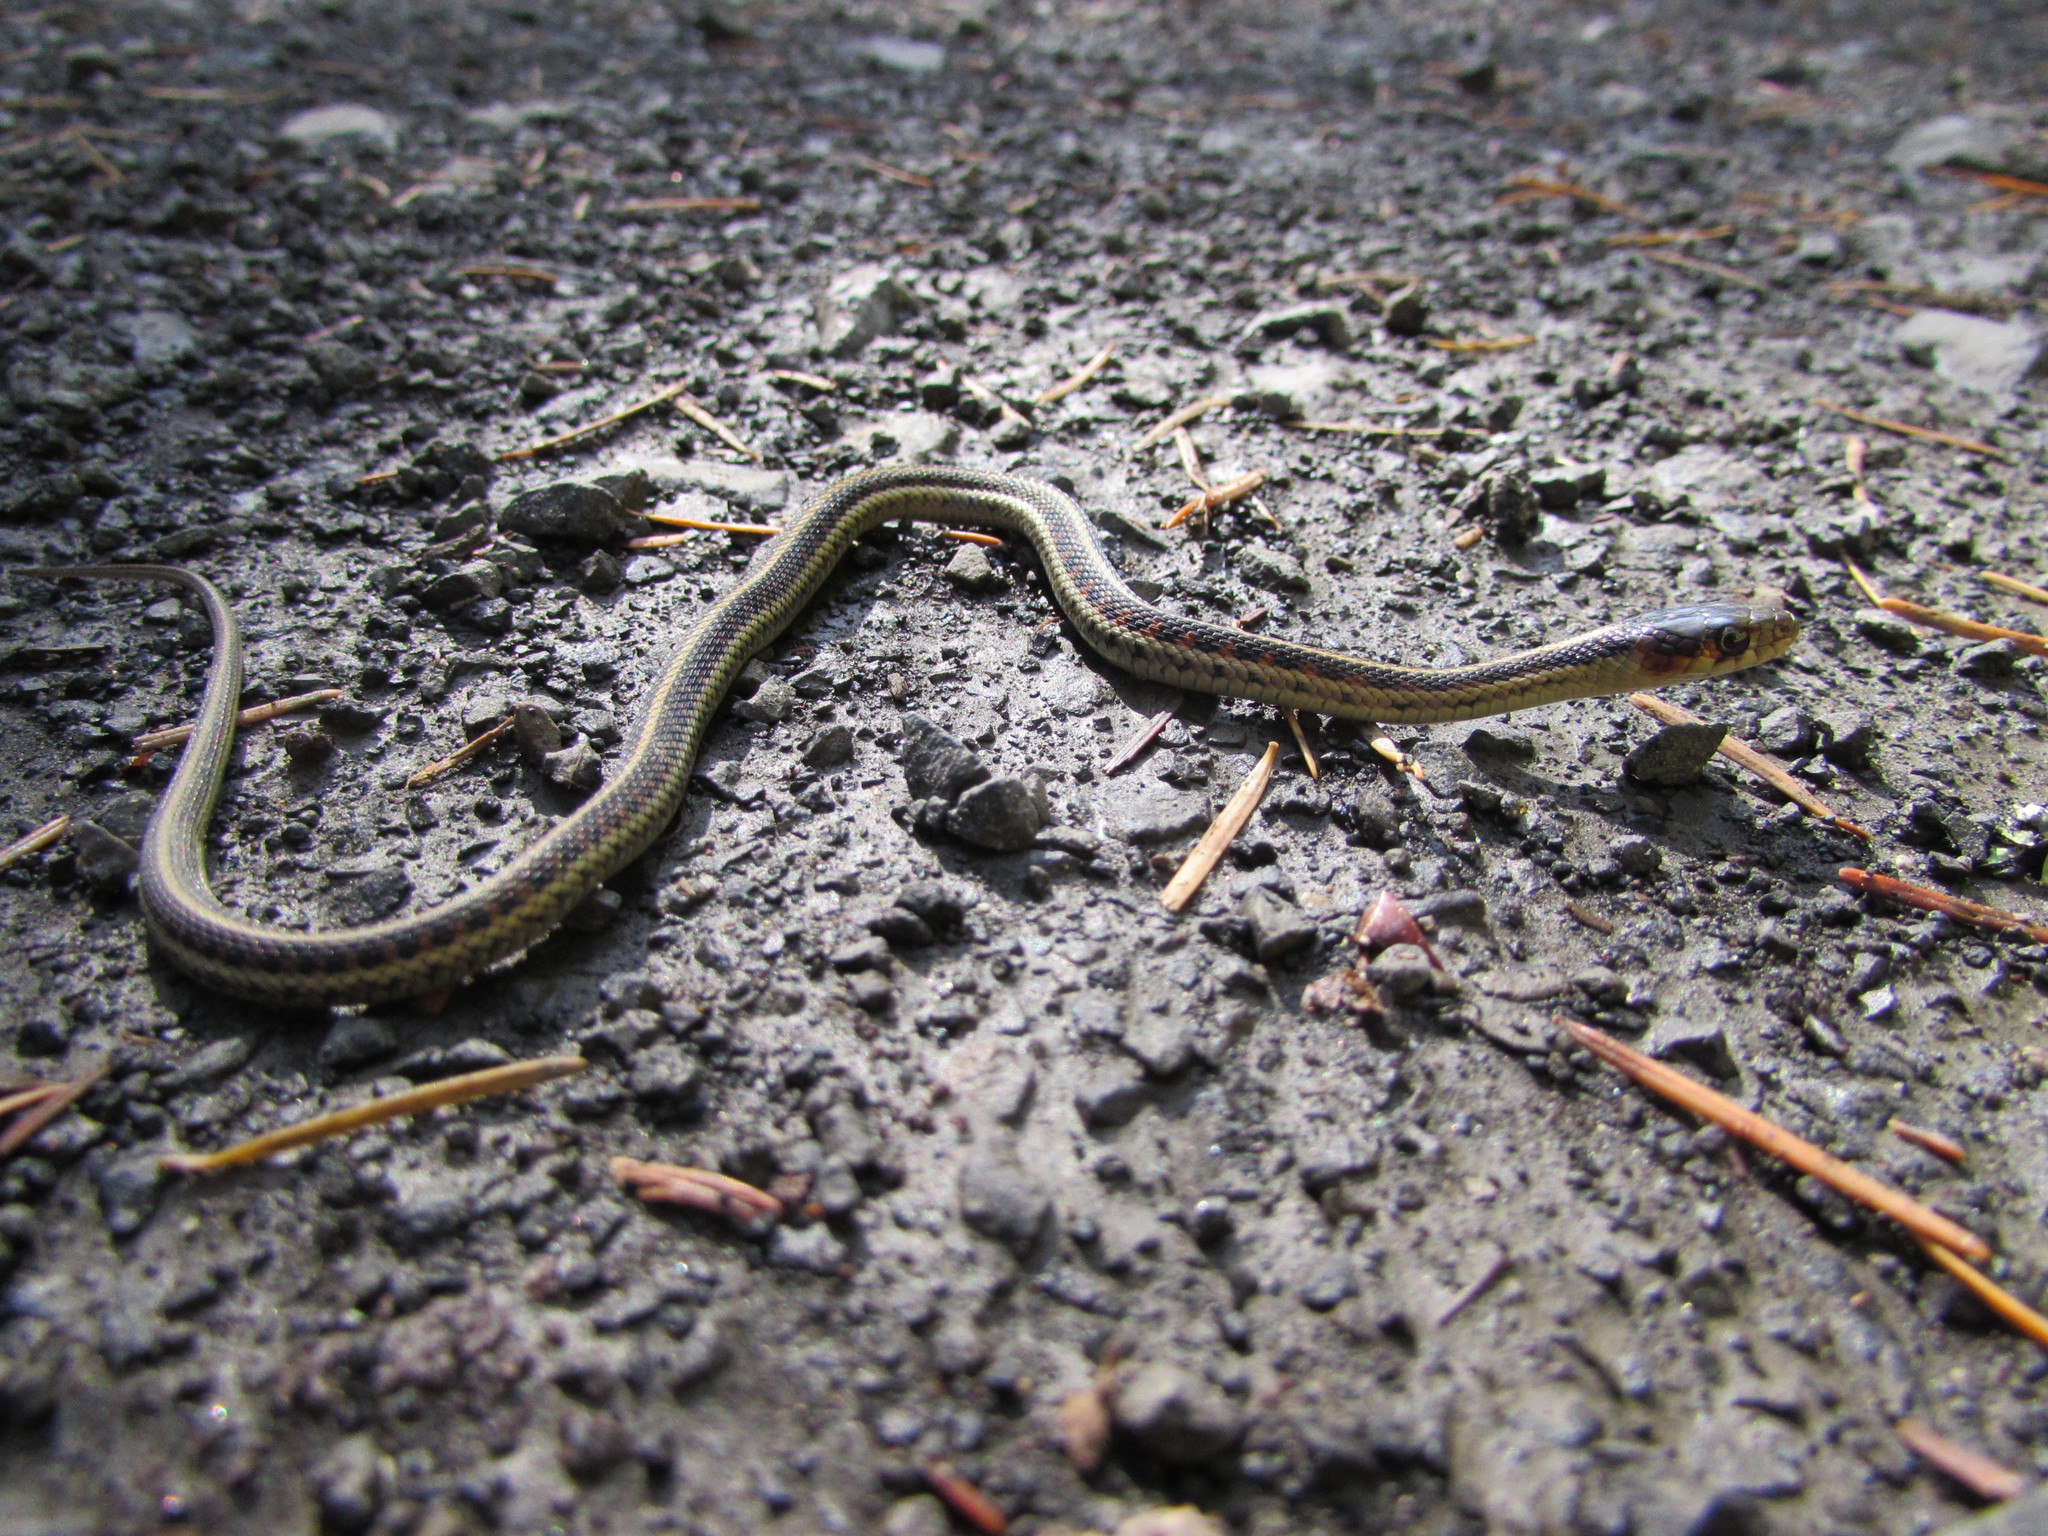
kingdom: Animalia
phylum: Chordata
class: Squamata
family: Colubridae
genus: Thamnophis
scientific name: Thamnophis sirtalis
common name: Common garter snake
